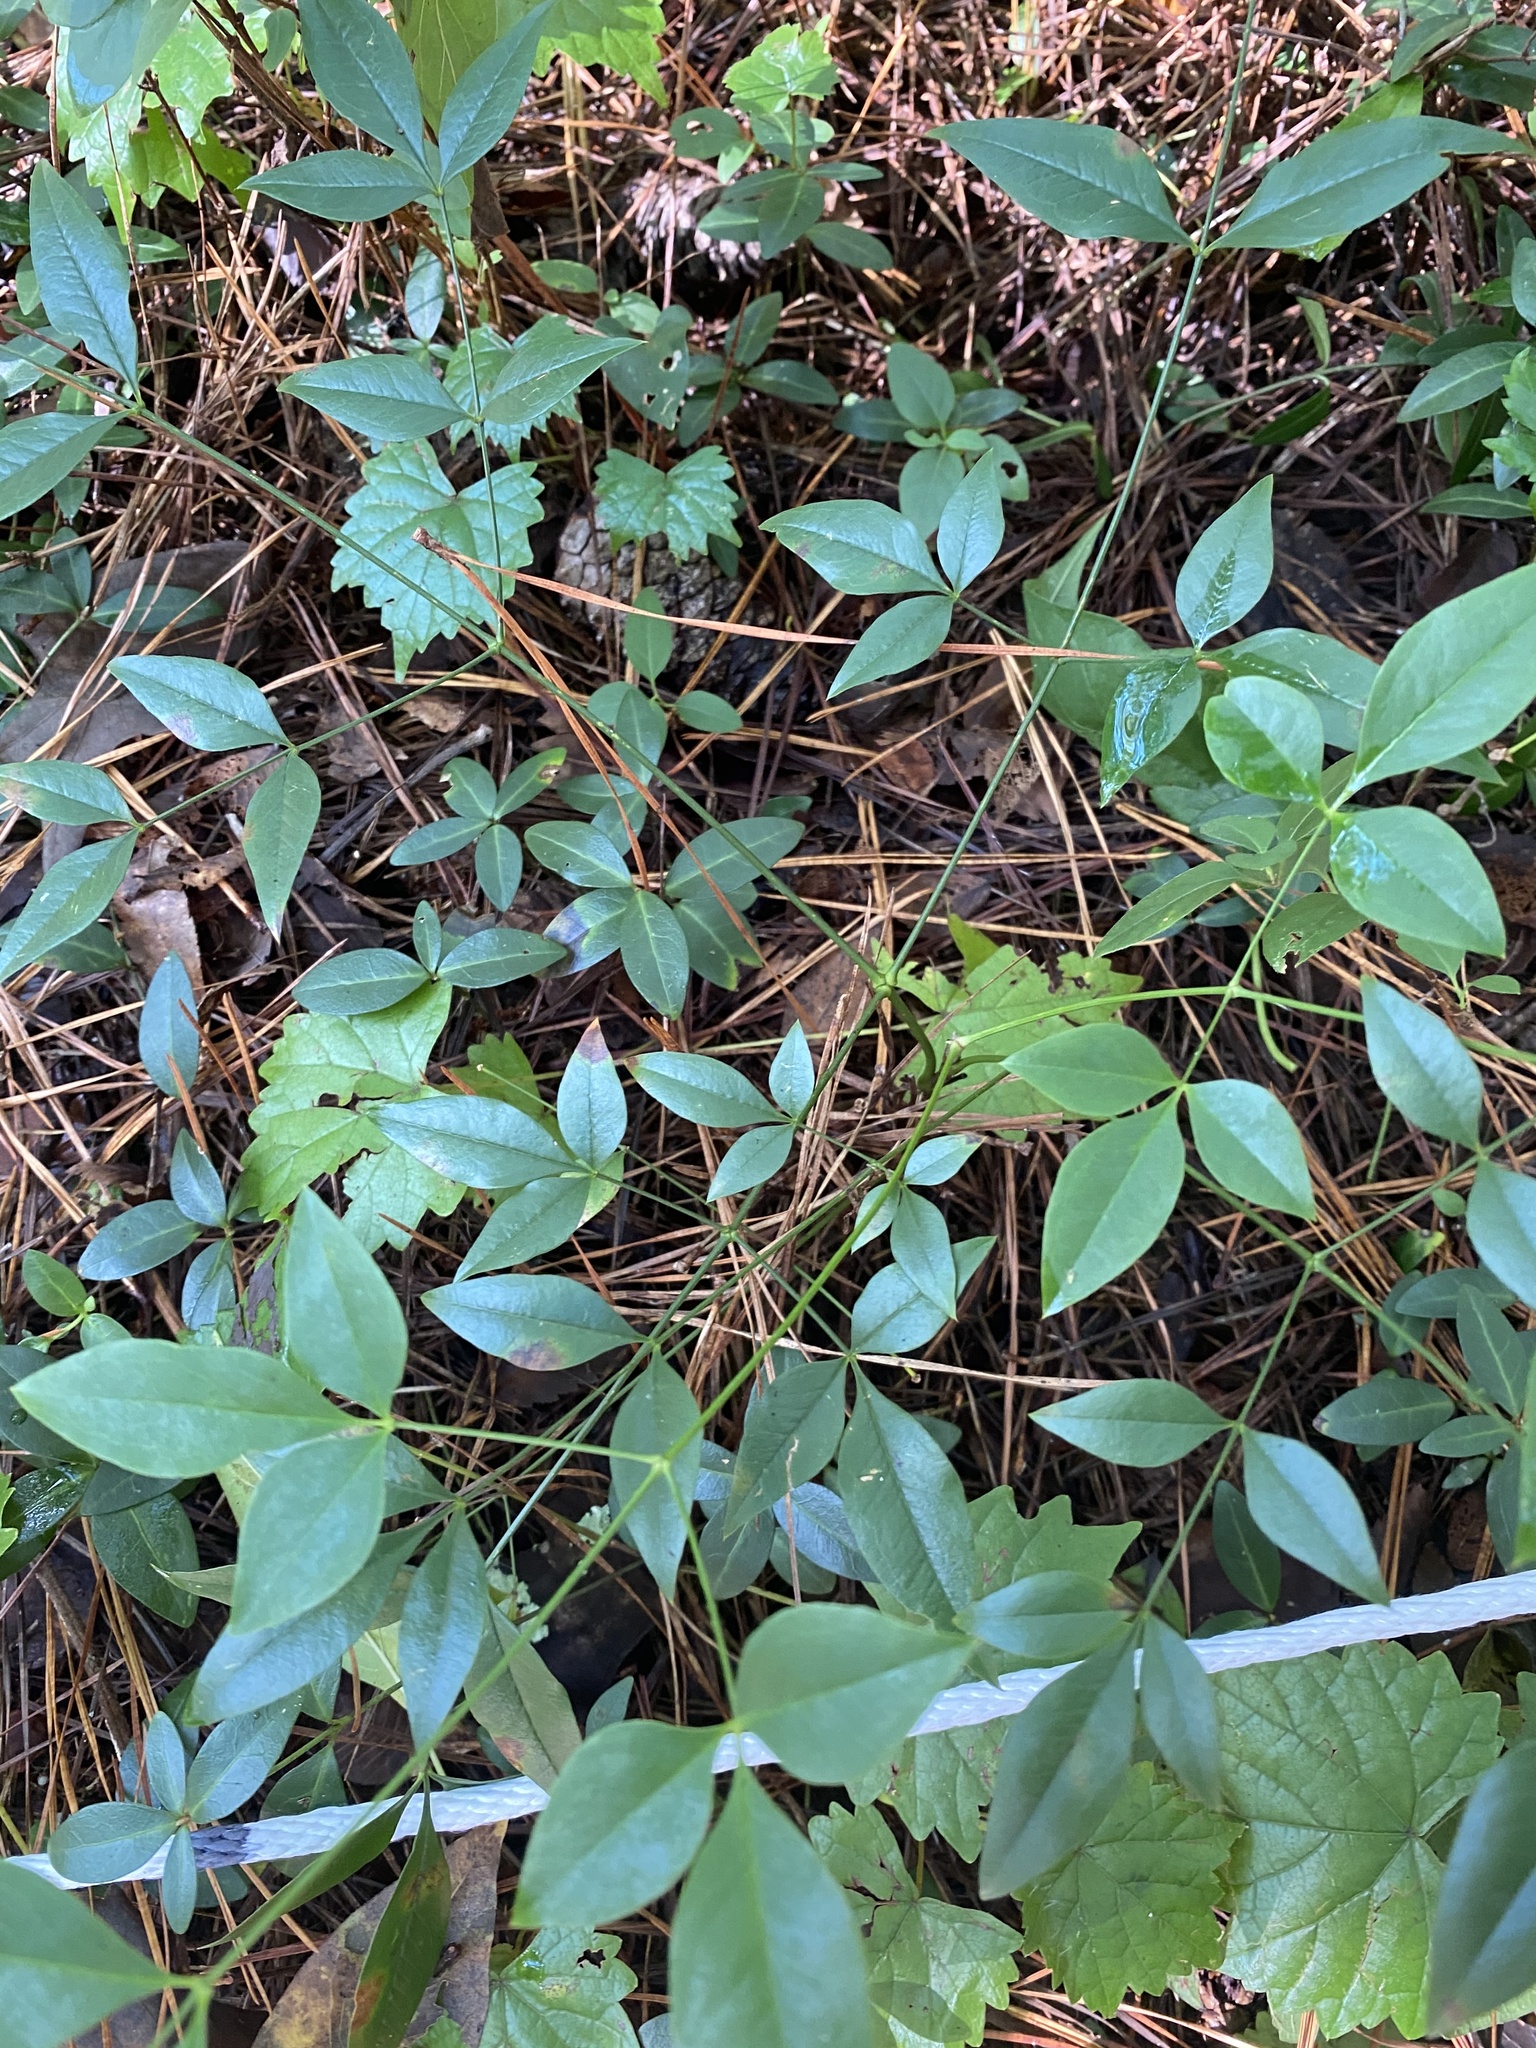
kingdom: Plantae
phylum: Tracheophyta
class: Magnoliopsida
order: Ranunculales
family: Berberidaceae
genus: Nandina
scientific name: Nandina domestica
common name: Sacred bamboo
